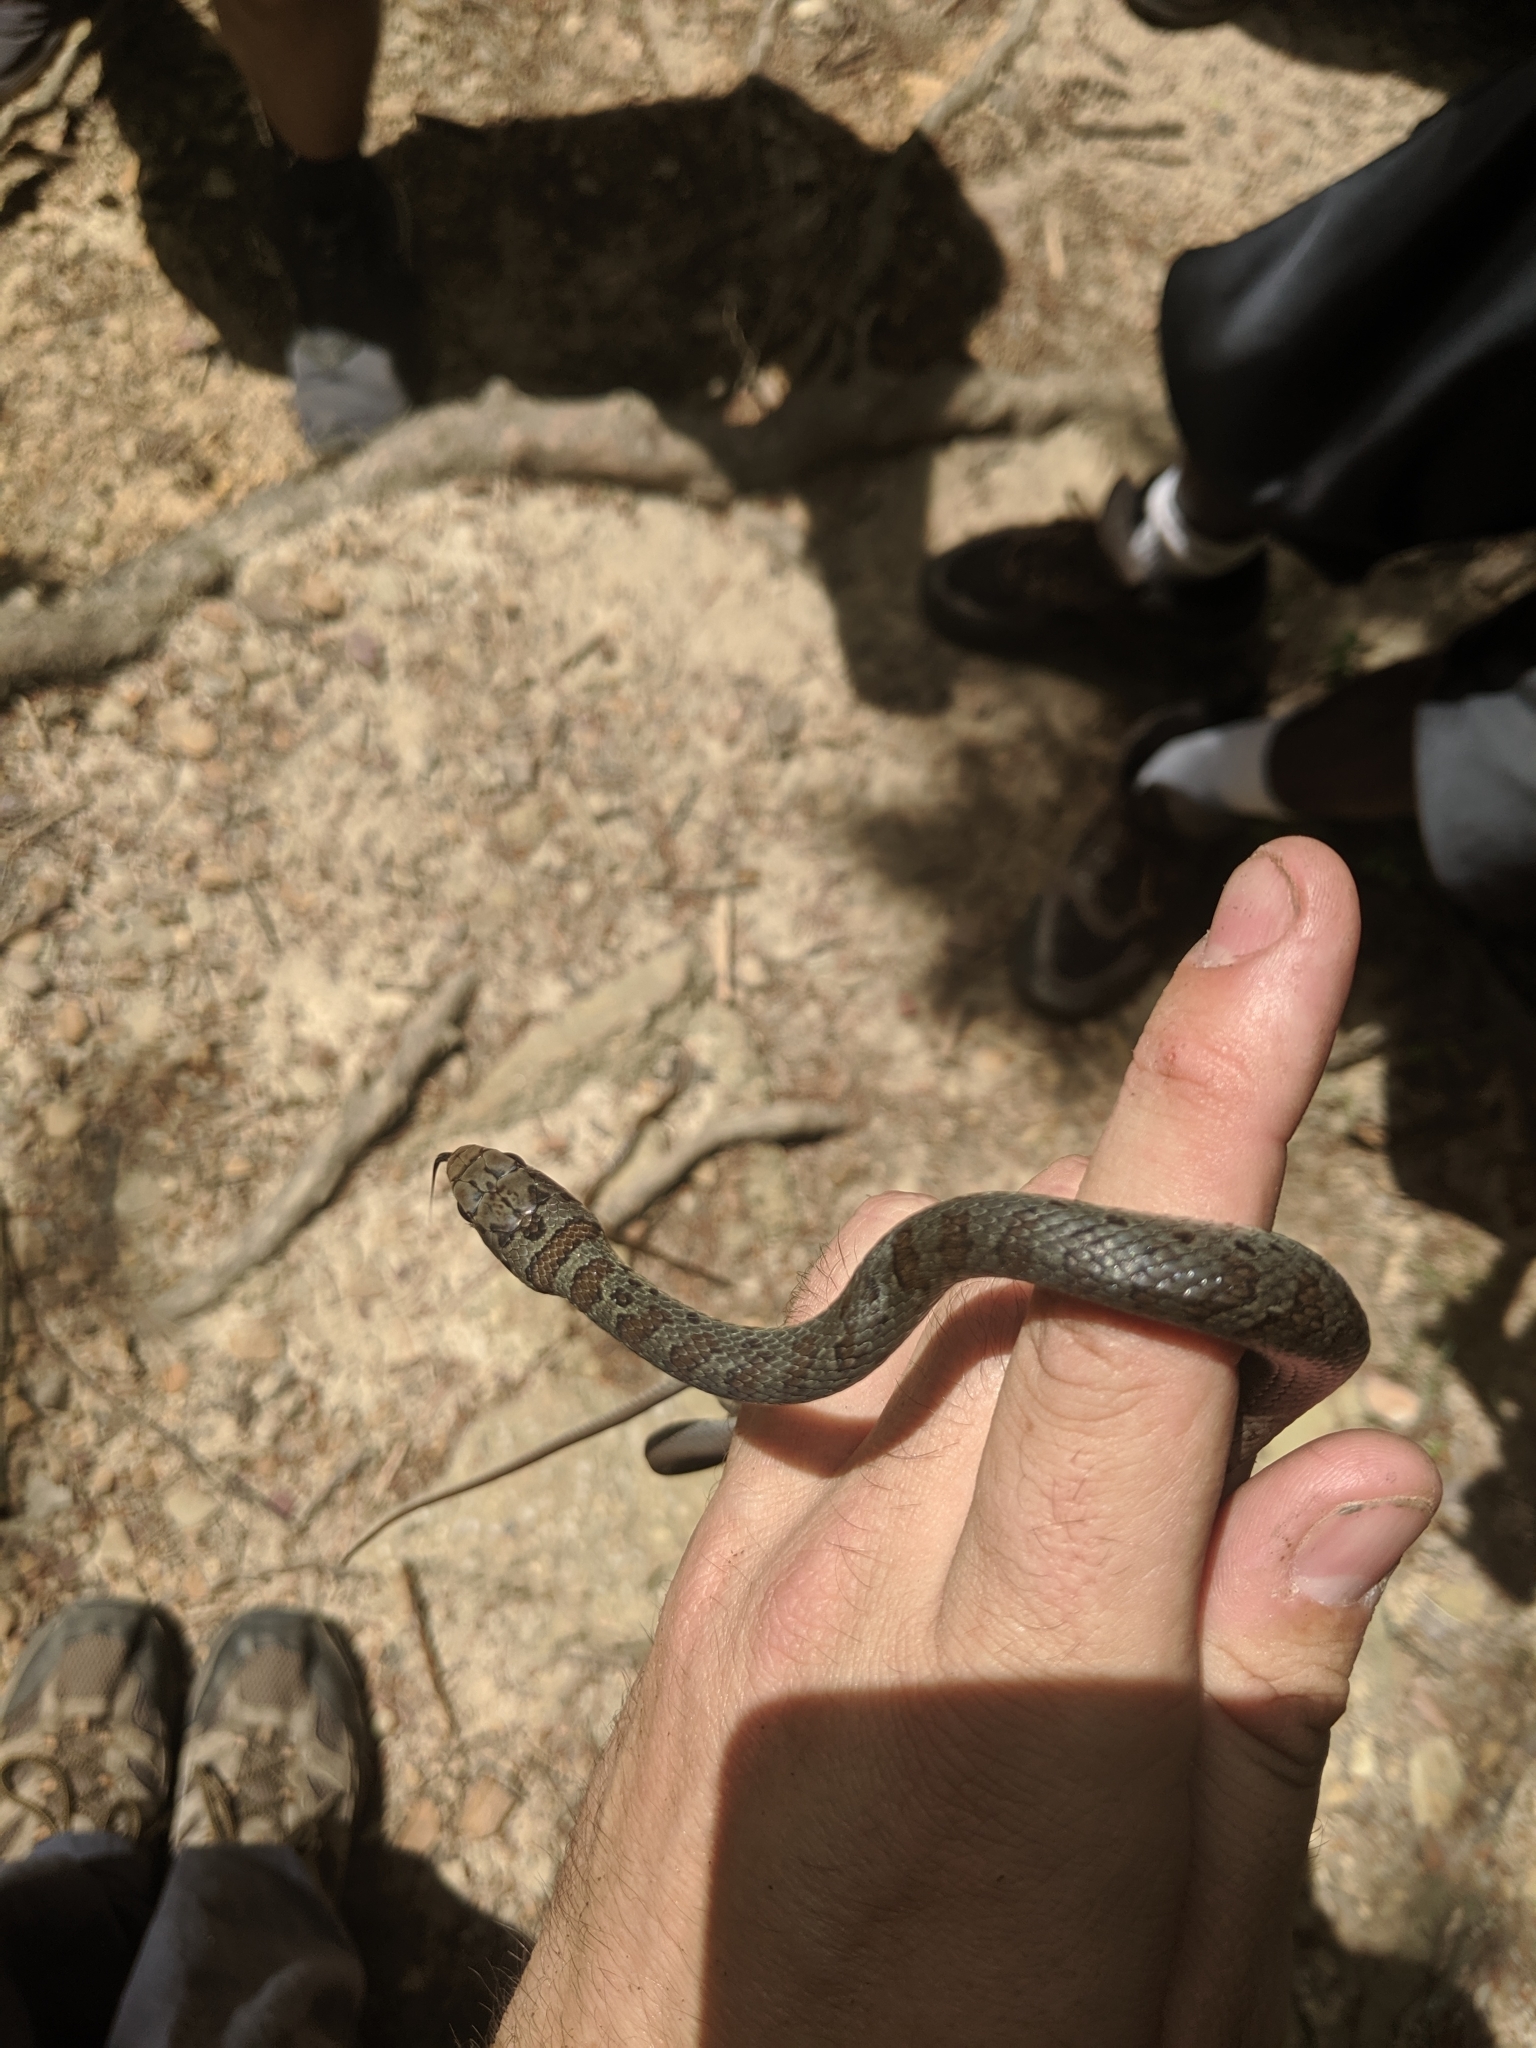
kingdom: Animalia
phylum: Chordata
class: Squamata
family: Colubridae
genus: Coluber
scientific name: Coluber constrictor
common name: Eastern racer
